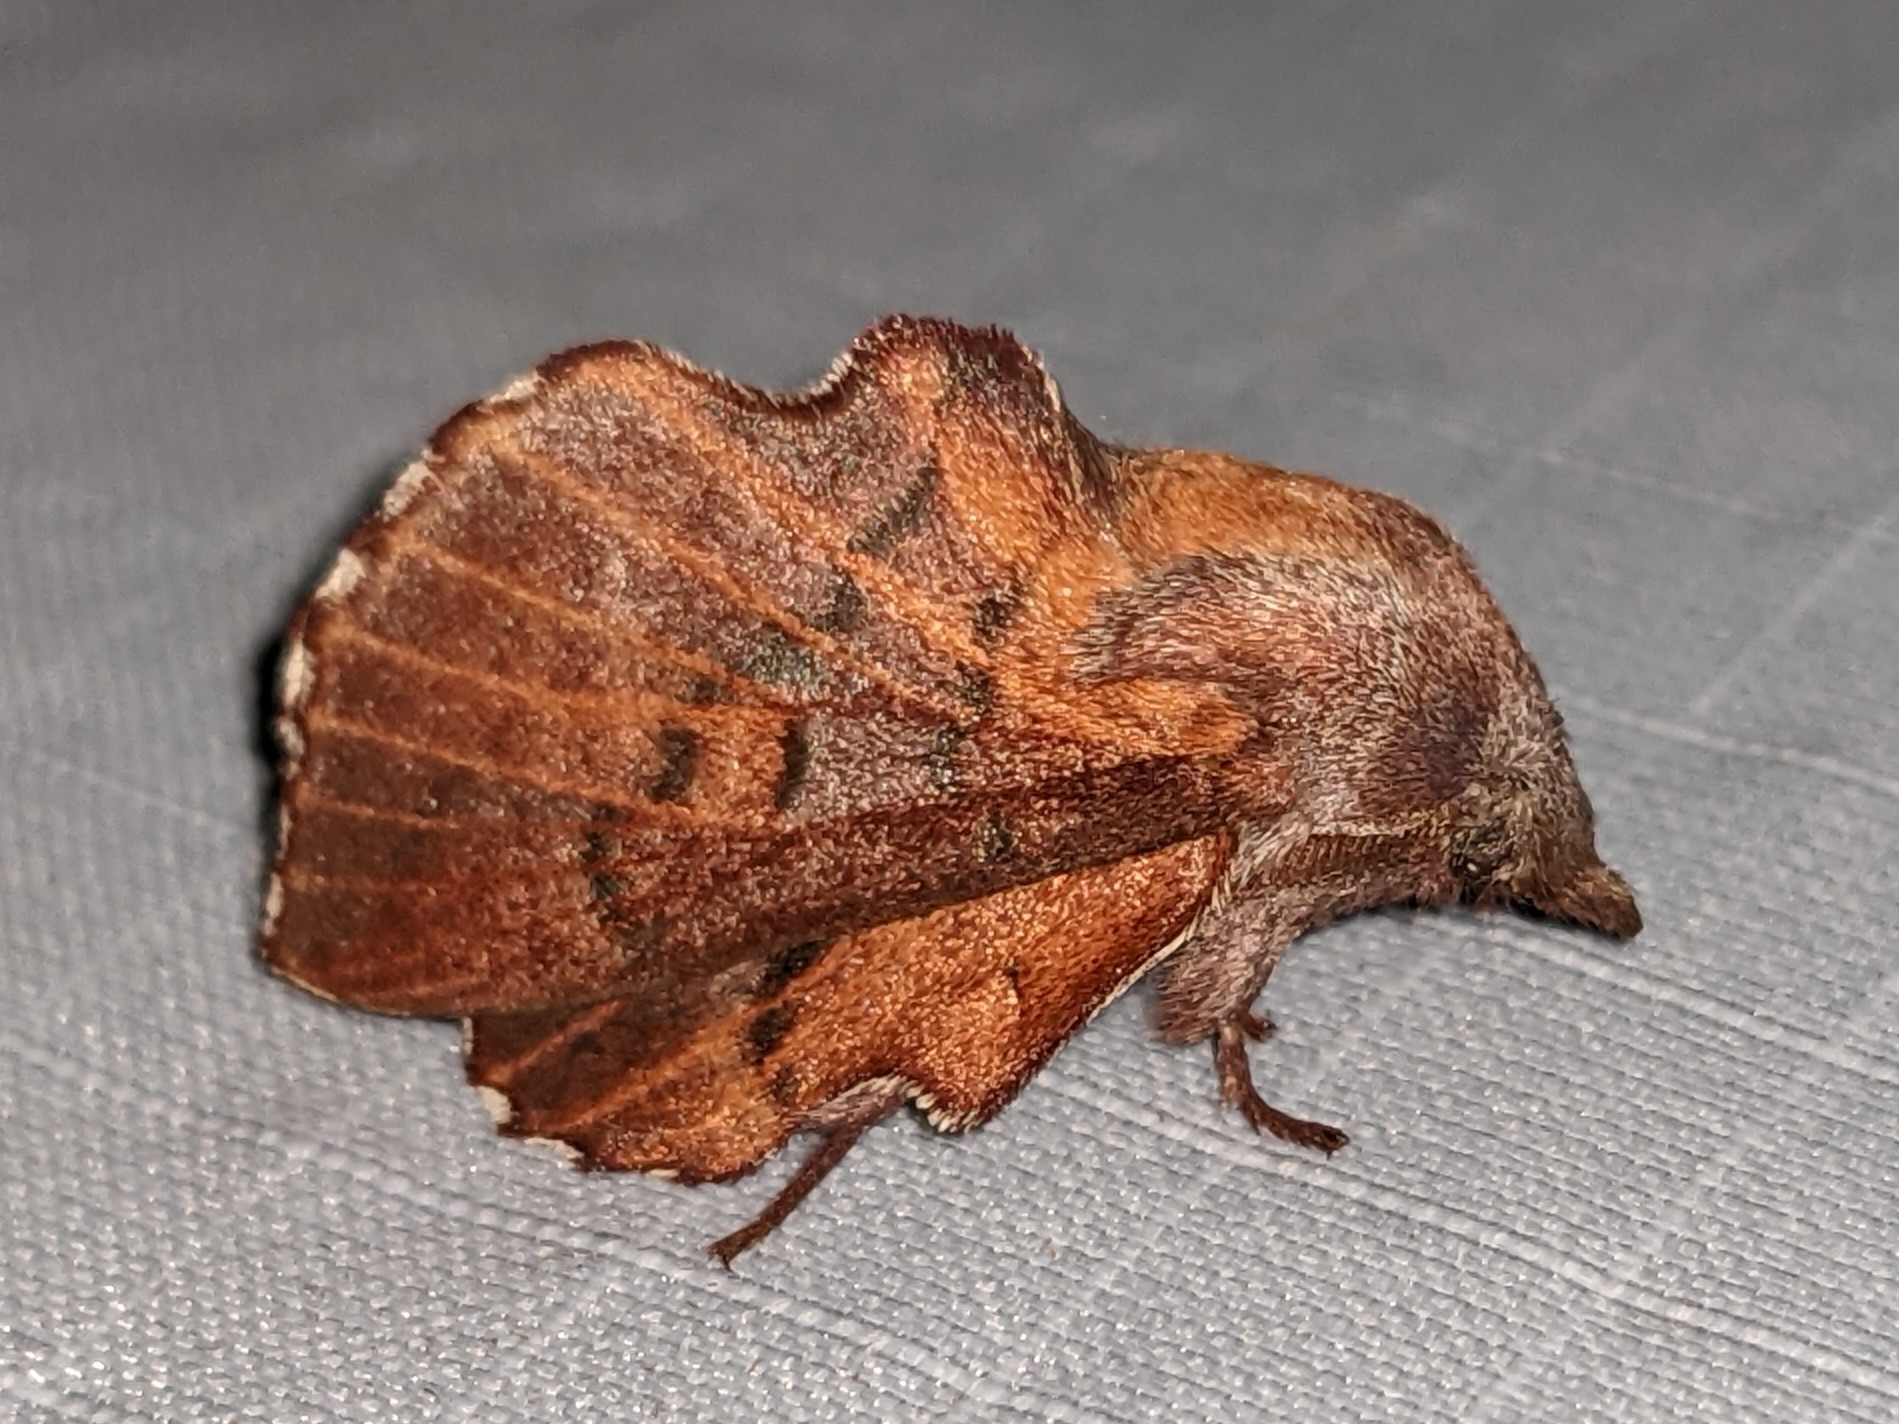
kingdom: Animalia
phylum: Arthropoda
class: Insecta
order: Lepidoptera
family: Lasiocampidae
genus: Phyllodesma
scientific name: Phyllodesma americana
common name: American lappet moth
